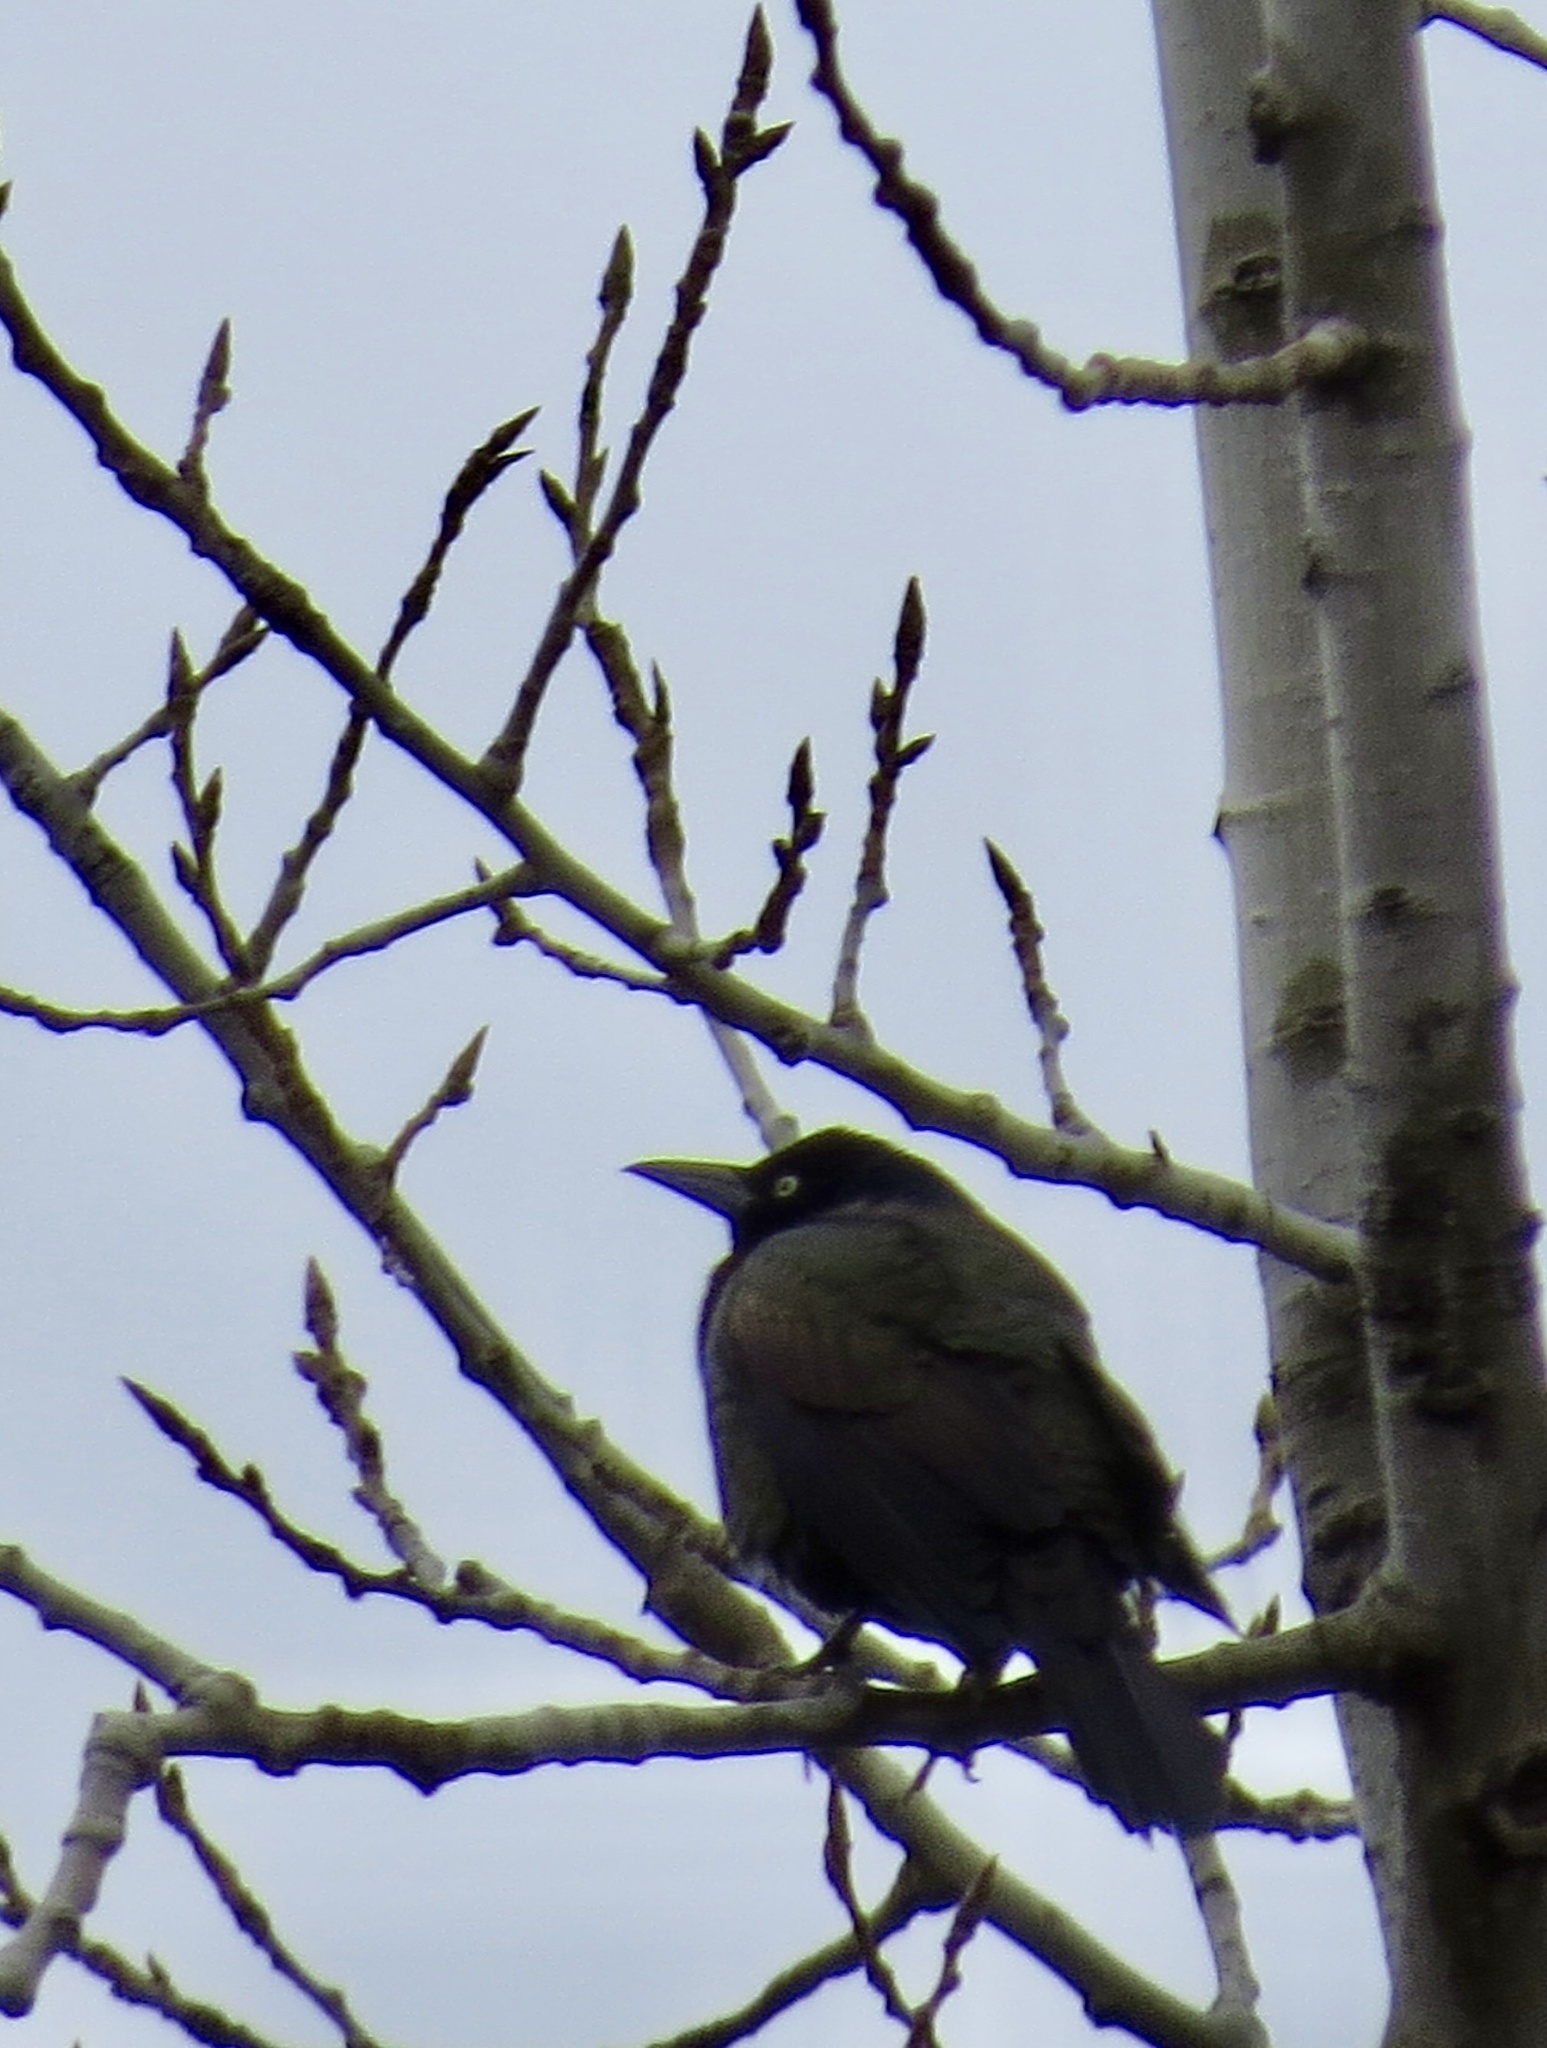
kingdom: Animalia
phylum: Chordata
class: Aves
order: Passeriformes
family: Icteridae
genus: Quiscalus
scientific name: Quiscalus quiscula
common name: Common grackle
